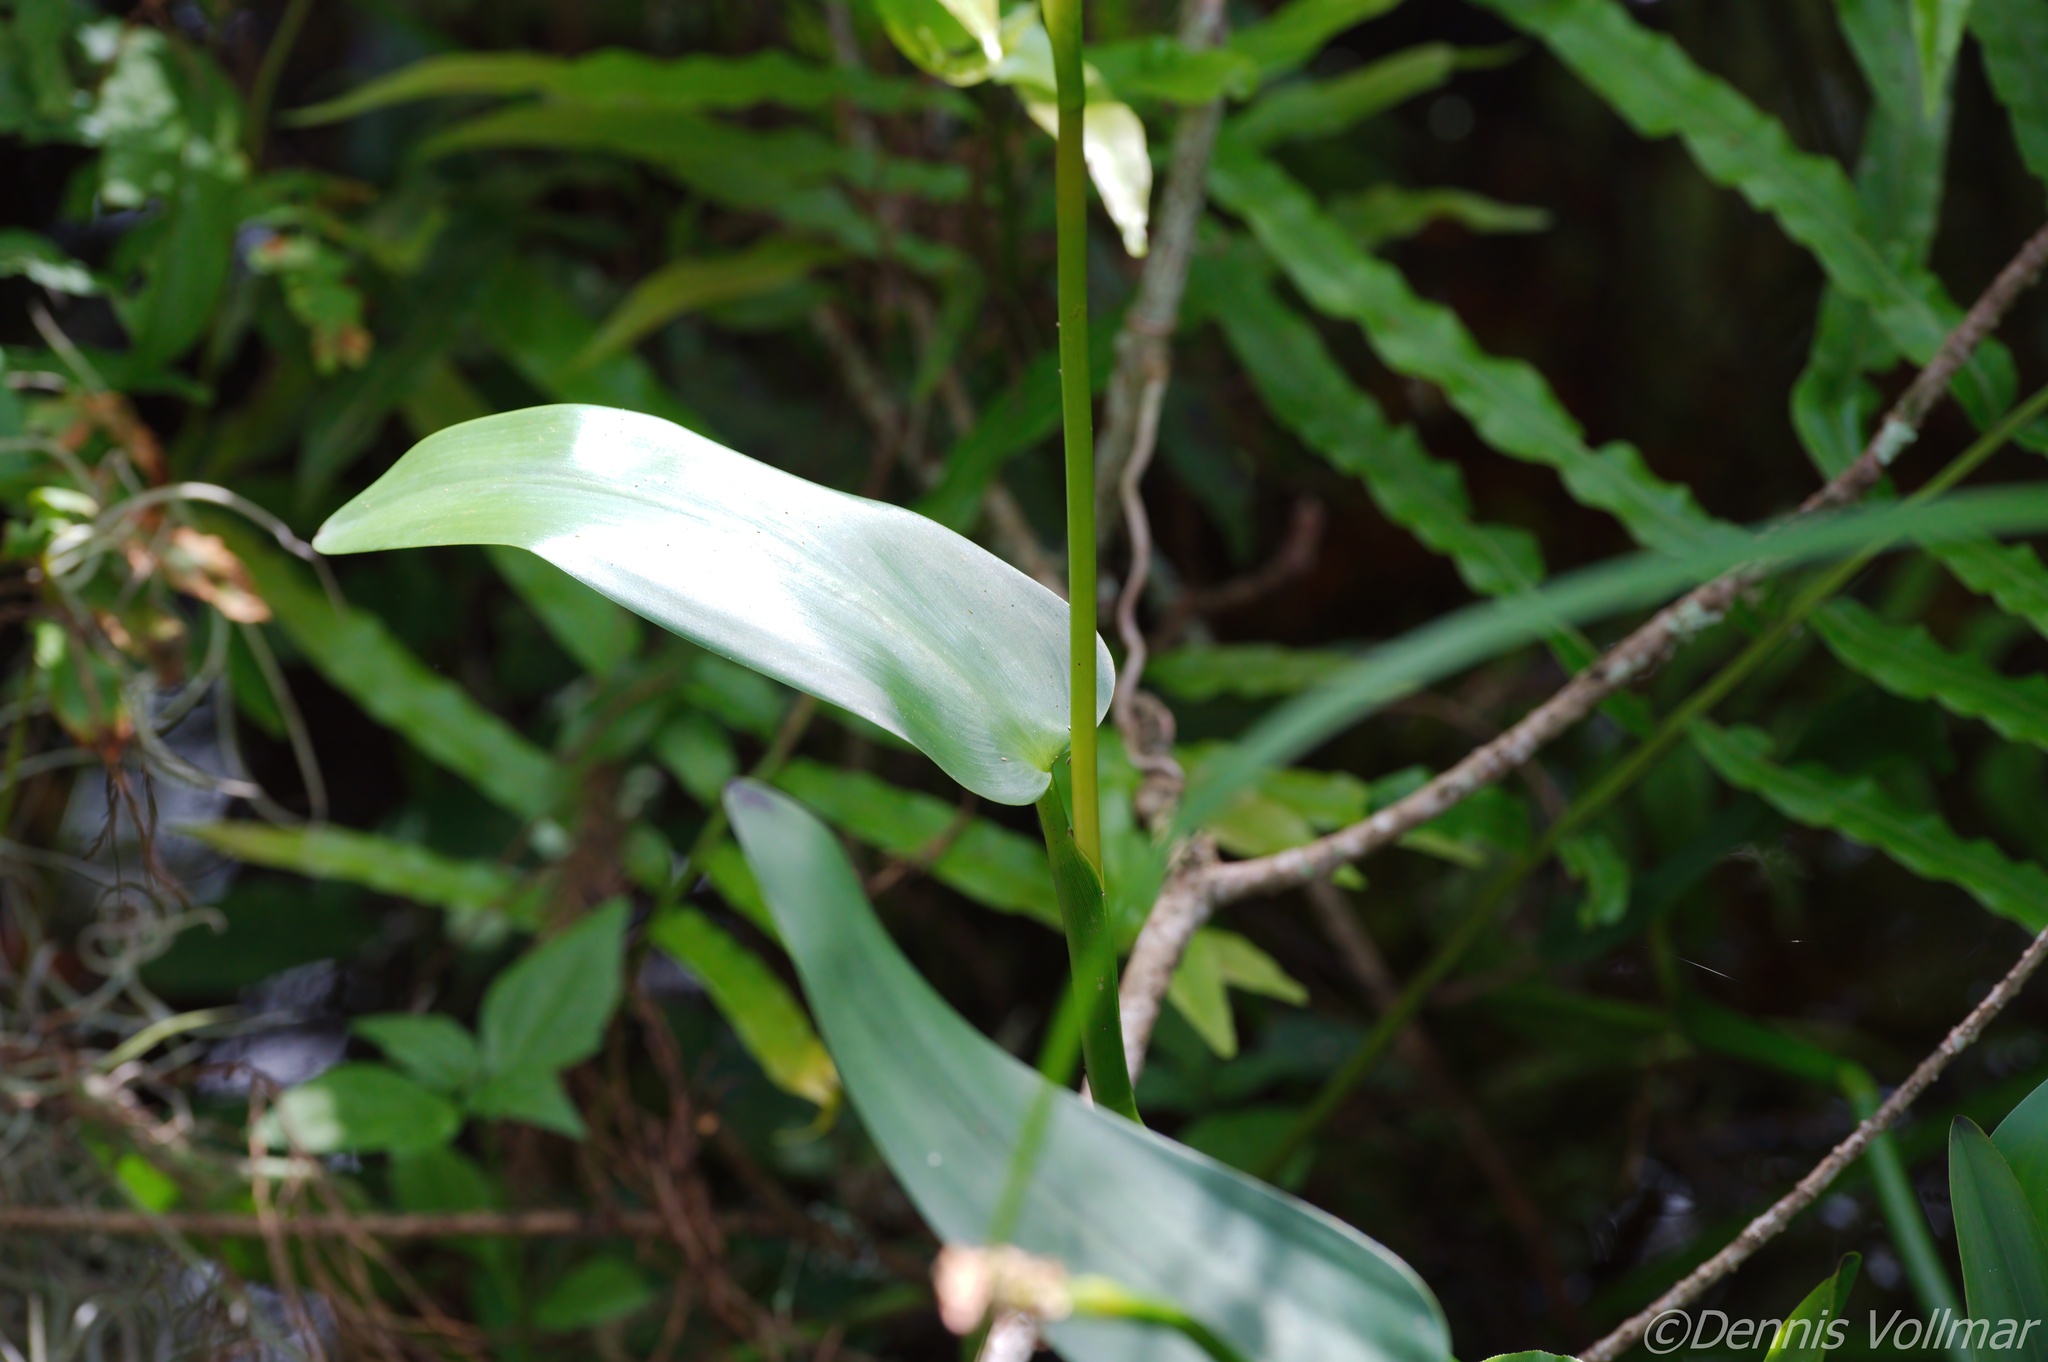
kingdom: Plantae
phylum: Tracheophyta
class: Liliopsida
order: Commelinales
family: Pontederiaceae
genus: Pontederia
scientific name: Pontederia cordata
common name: Pickerelweed
